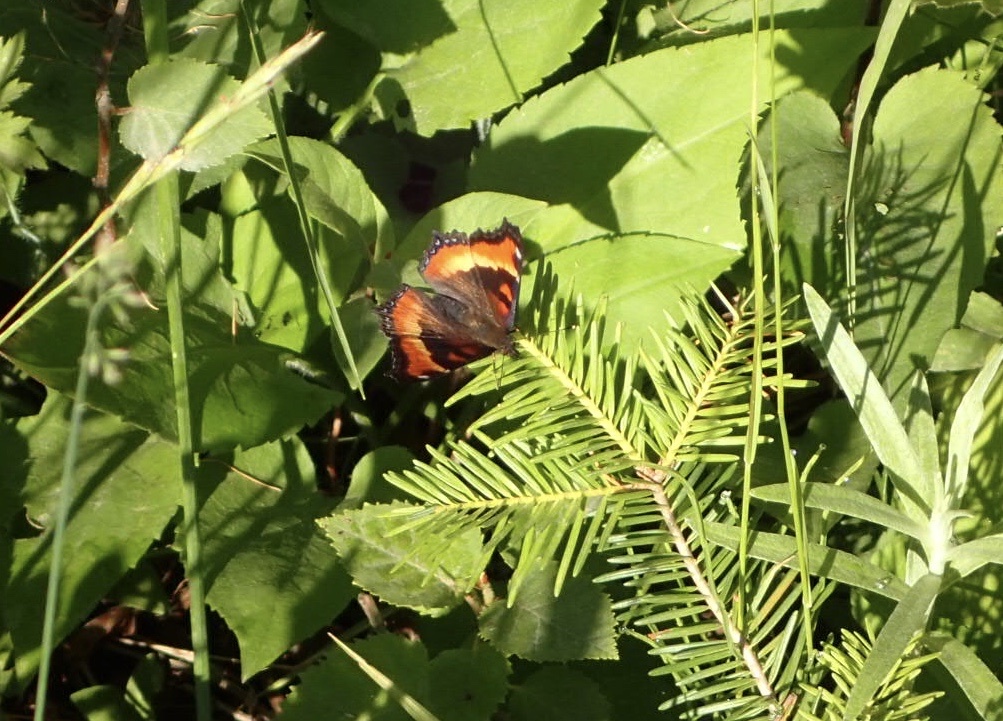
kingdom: Animalia
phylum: Arthropoda
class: Insecta
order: Lepidoptera
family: Nymphalidae
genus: Aglais
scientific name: Aglais milberti
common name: Milbert's tortoiseshell
